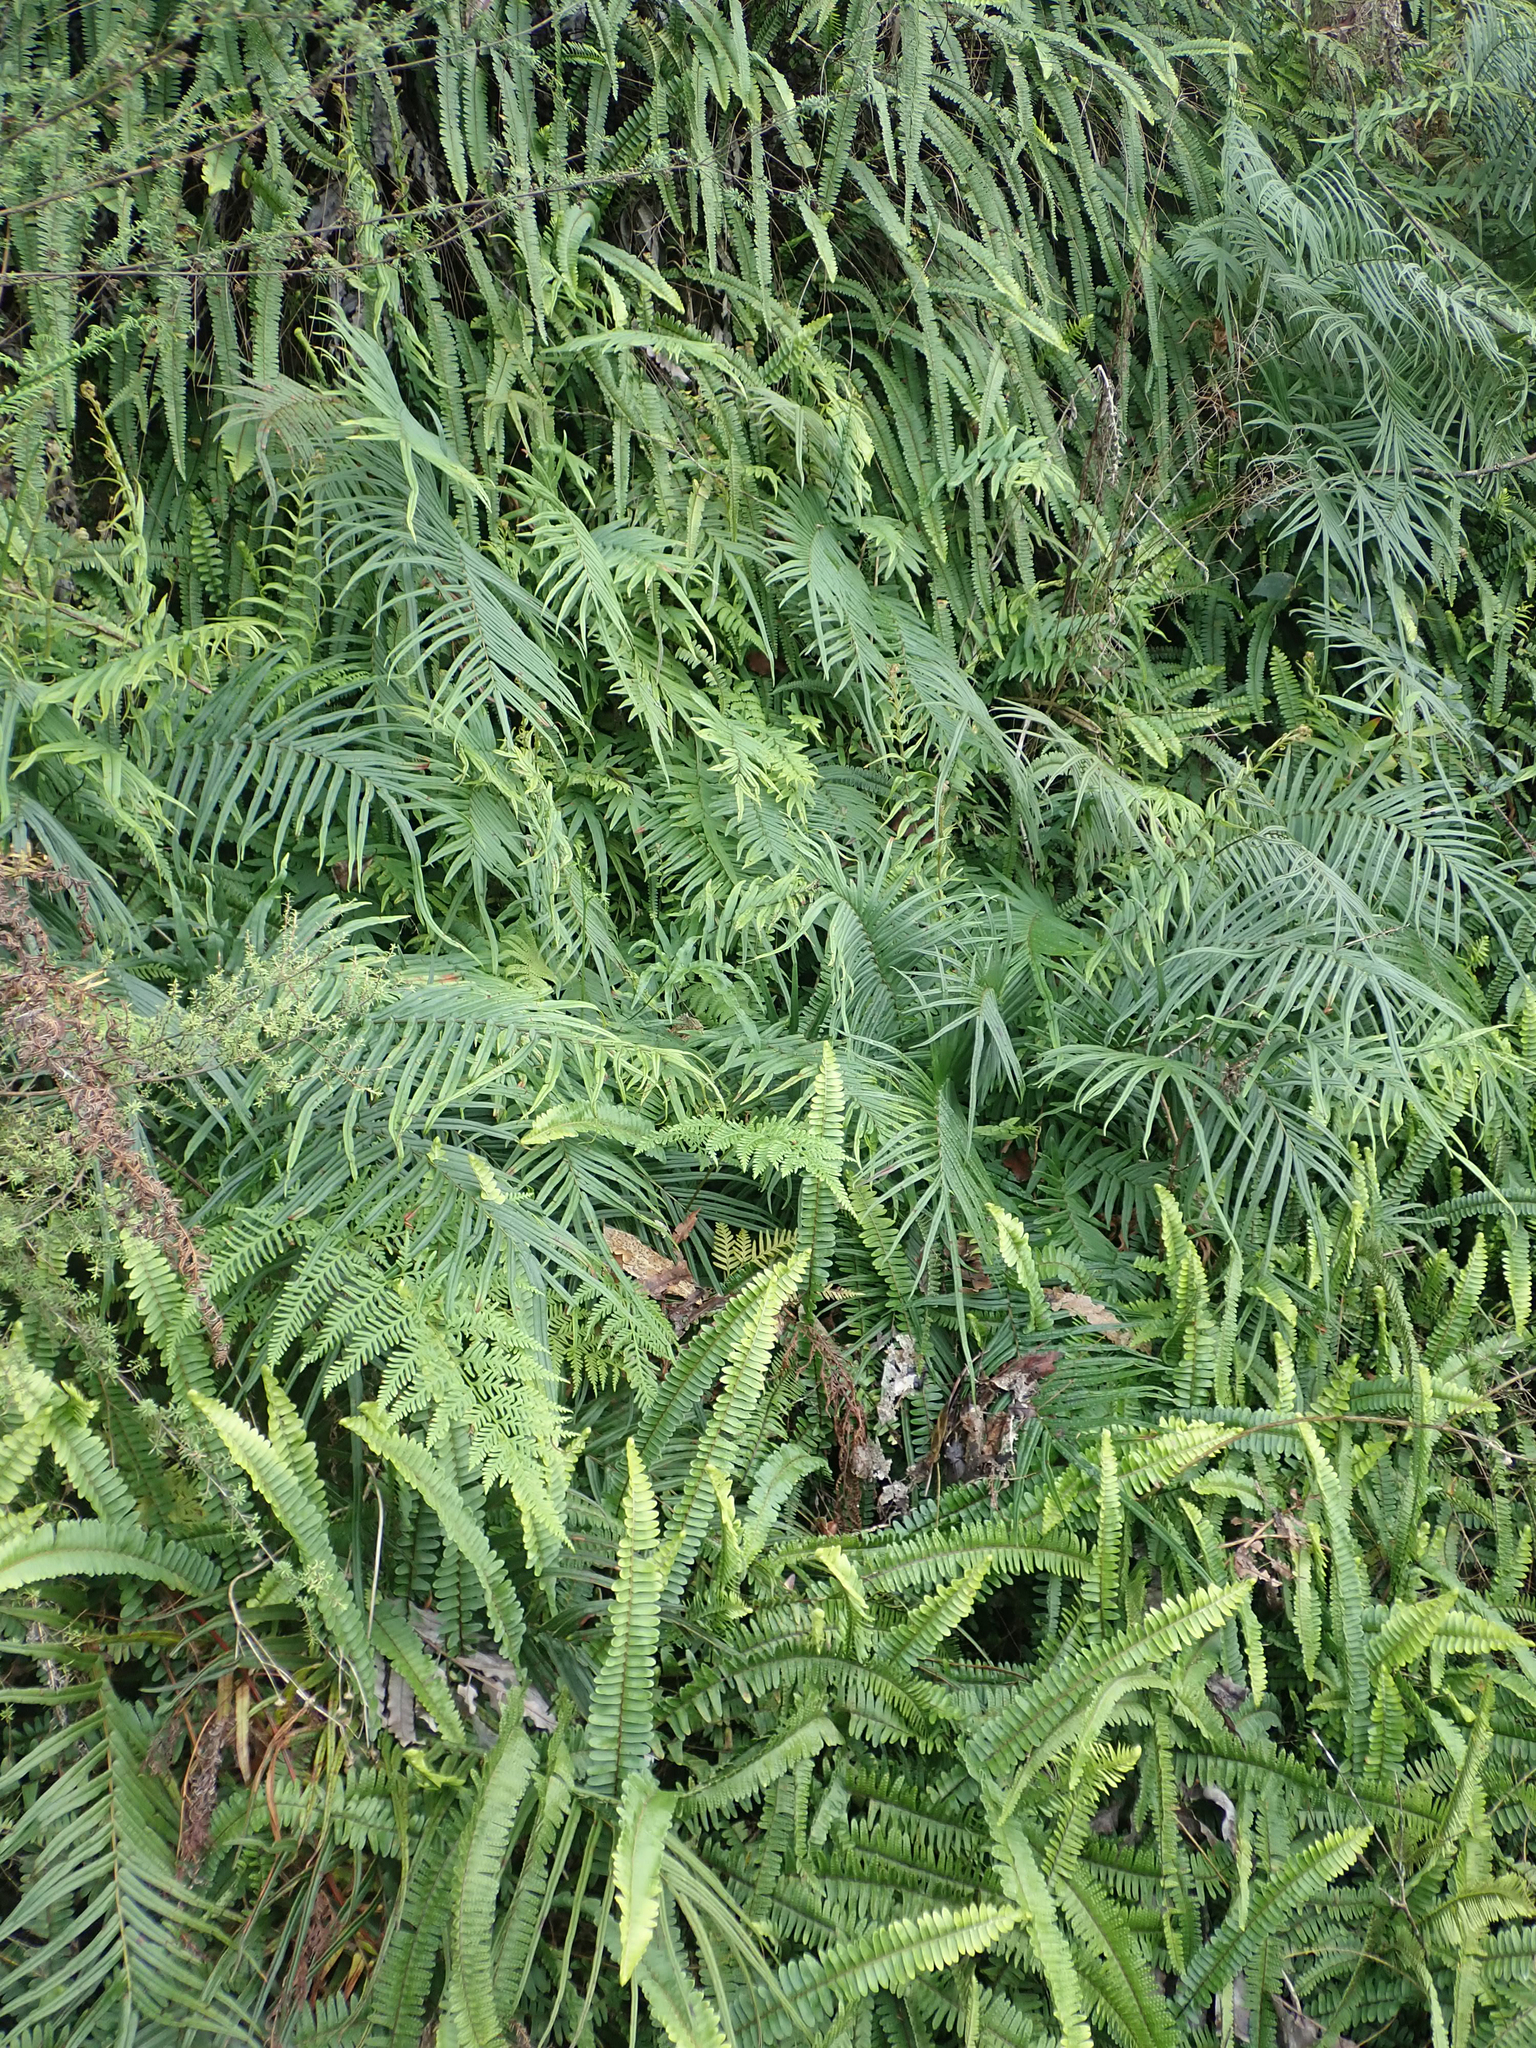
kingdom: Plantae
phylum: Tracheophyta
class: Polypodiopsida
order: Polypodiales
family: Pteridaceae
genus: Pteris
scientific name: Pteris vittata
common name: Ladder brake
